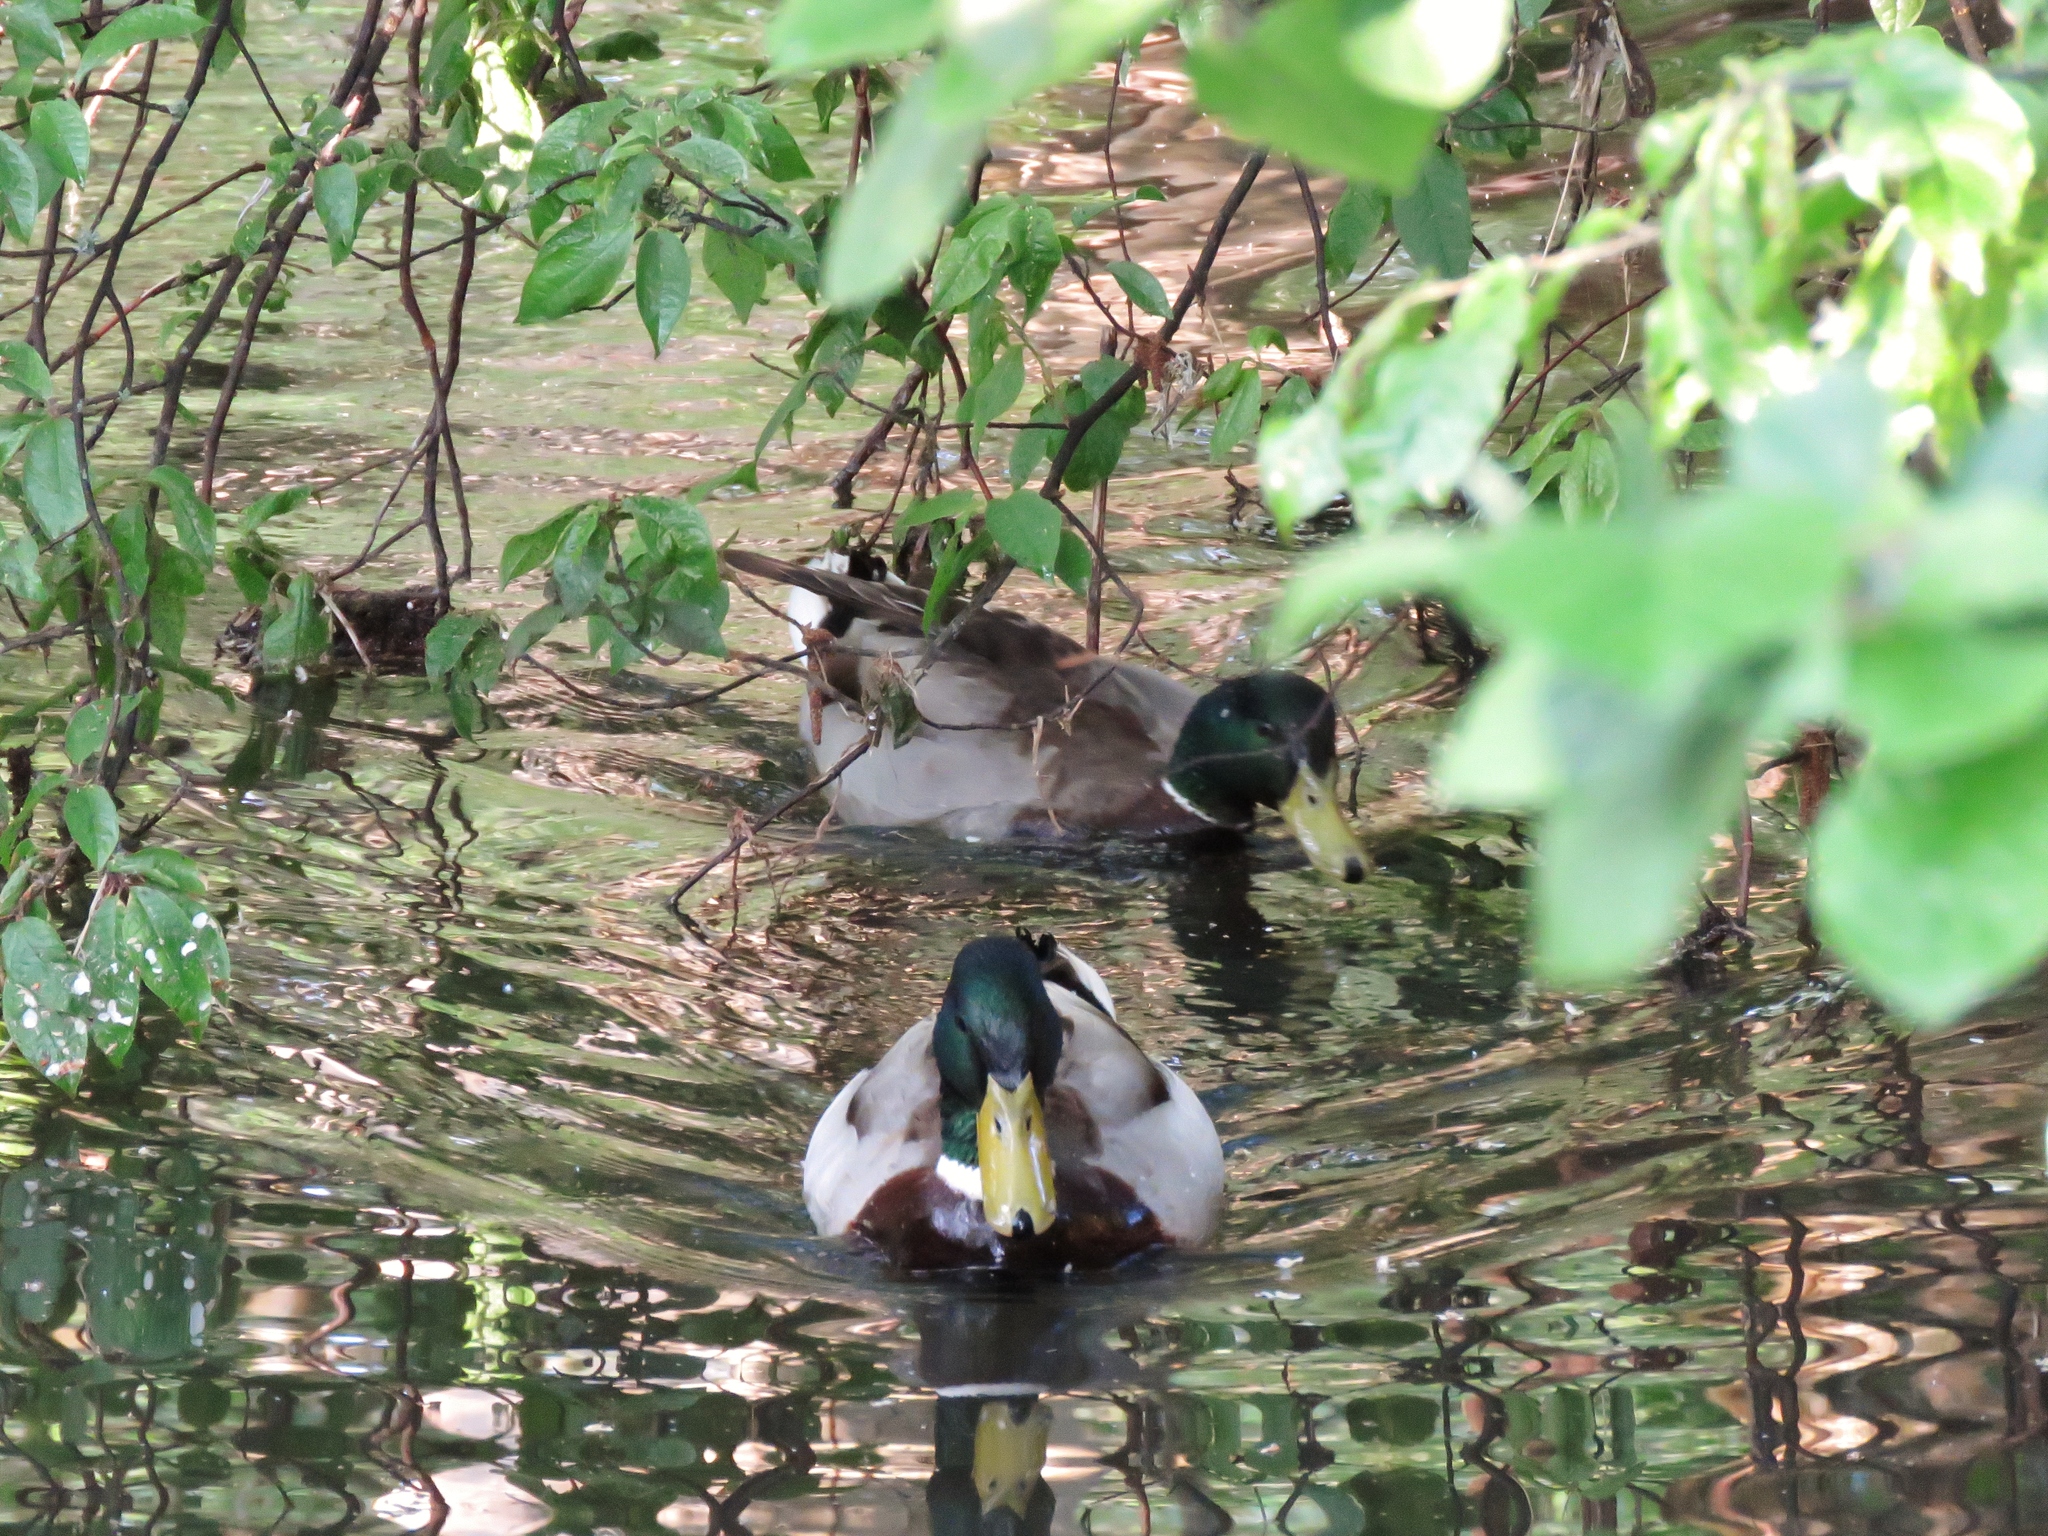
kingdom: Animalia
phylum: Chordata
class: Aves
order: Anseriformes
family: Anatidae
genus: Anas
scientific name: Anas platyrhynchos
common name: Mallard
